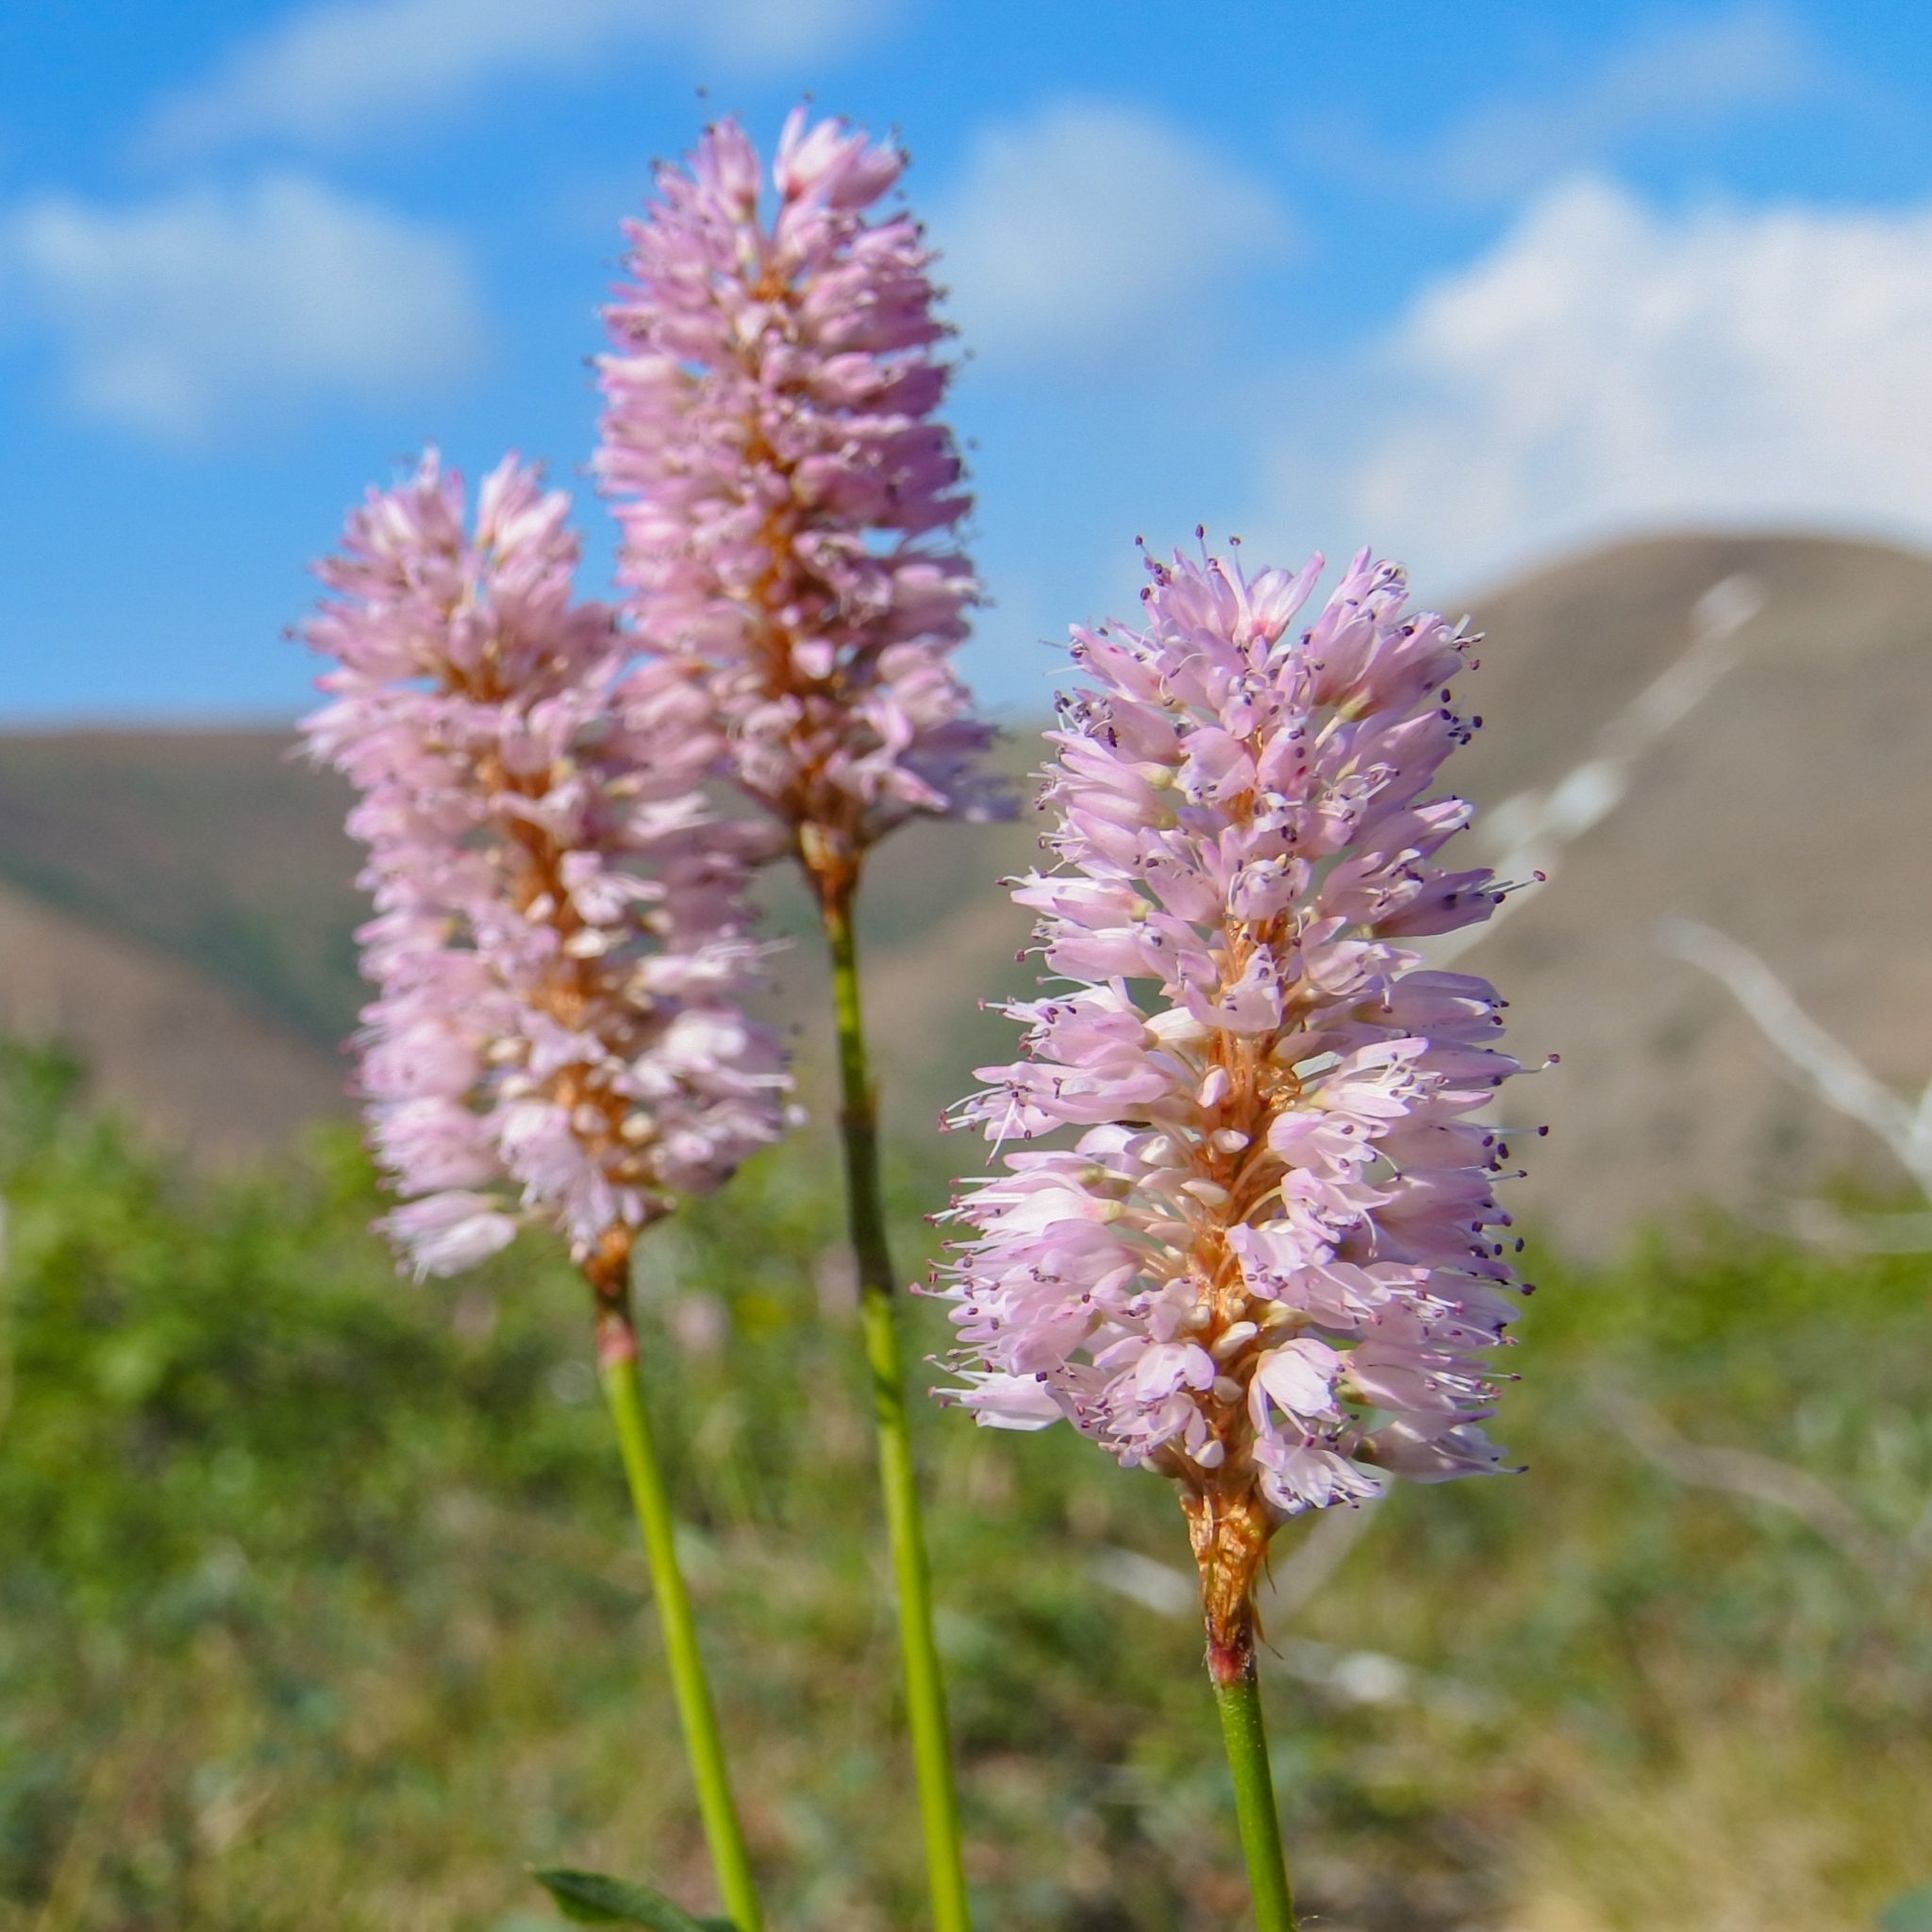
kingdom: Plantae
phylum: Tracheophyta
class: Magnoliopsida
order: Caryophyllales
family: Polygonaceae
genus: Bistorta
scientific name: Bistorta officinalis
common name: Common bistort
